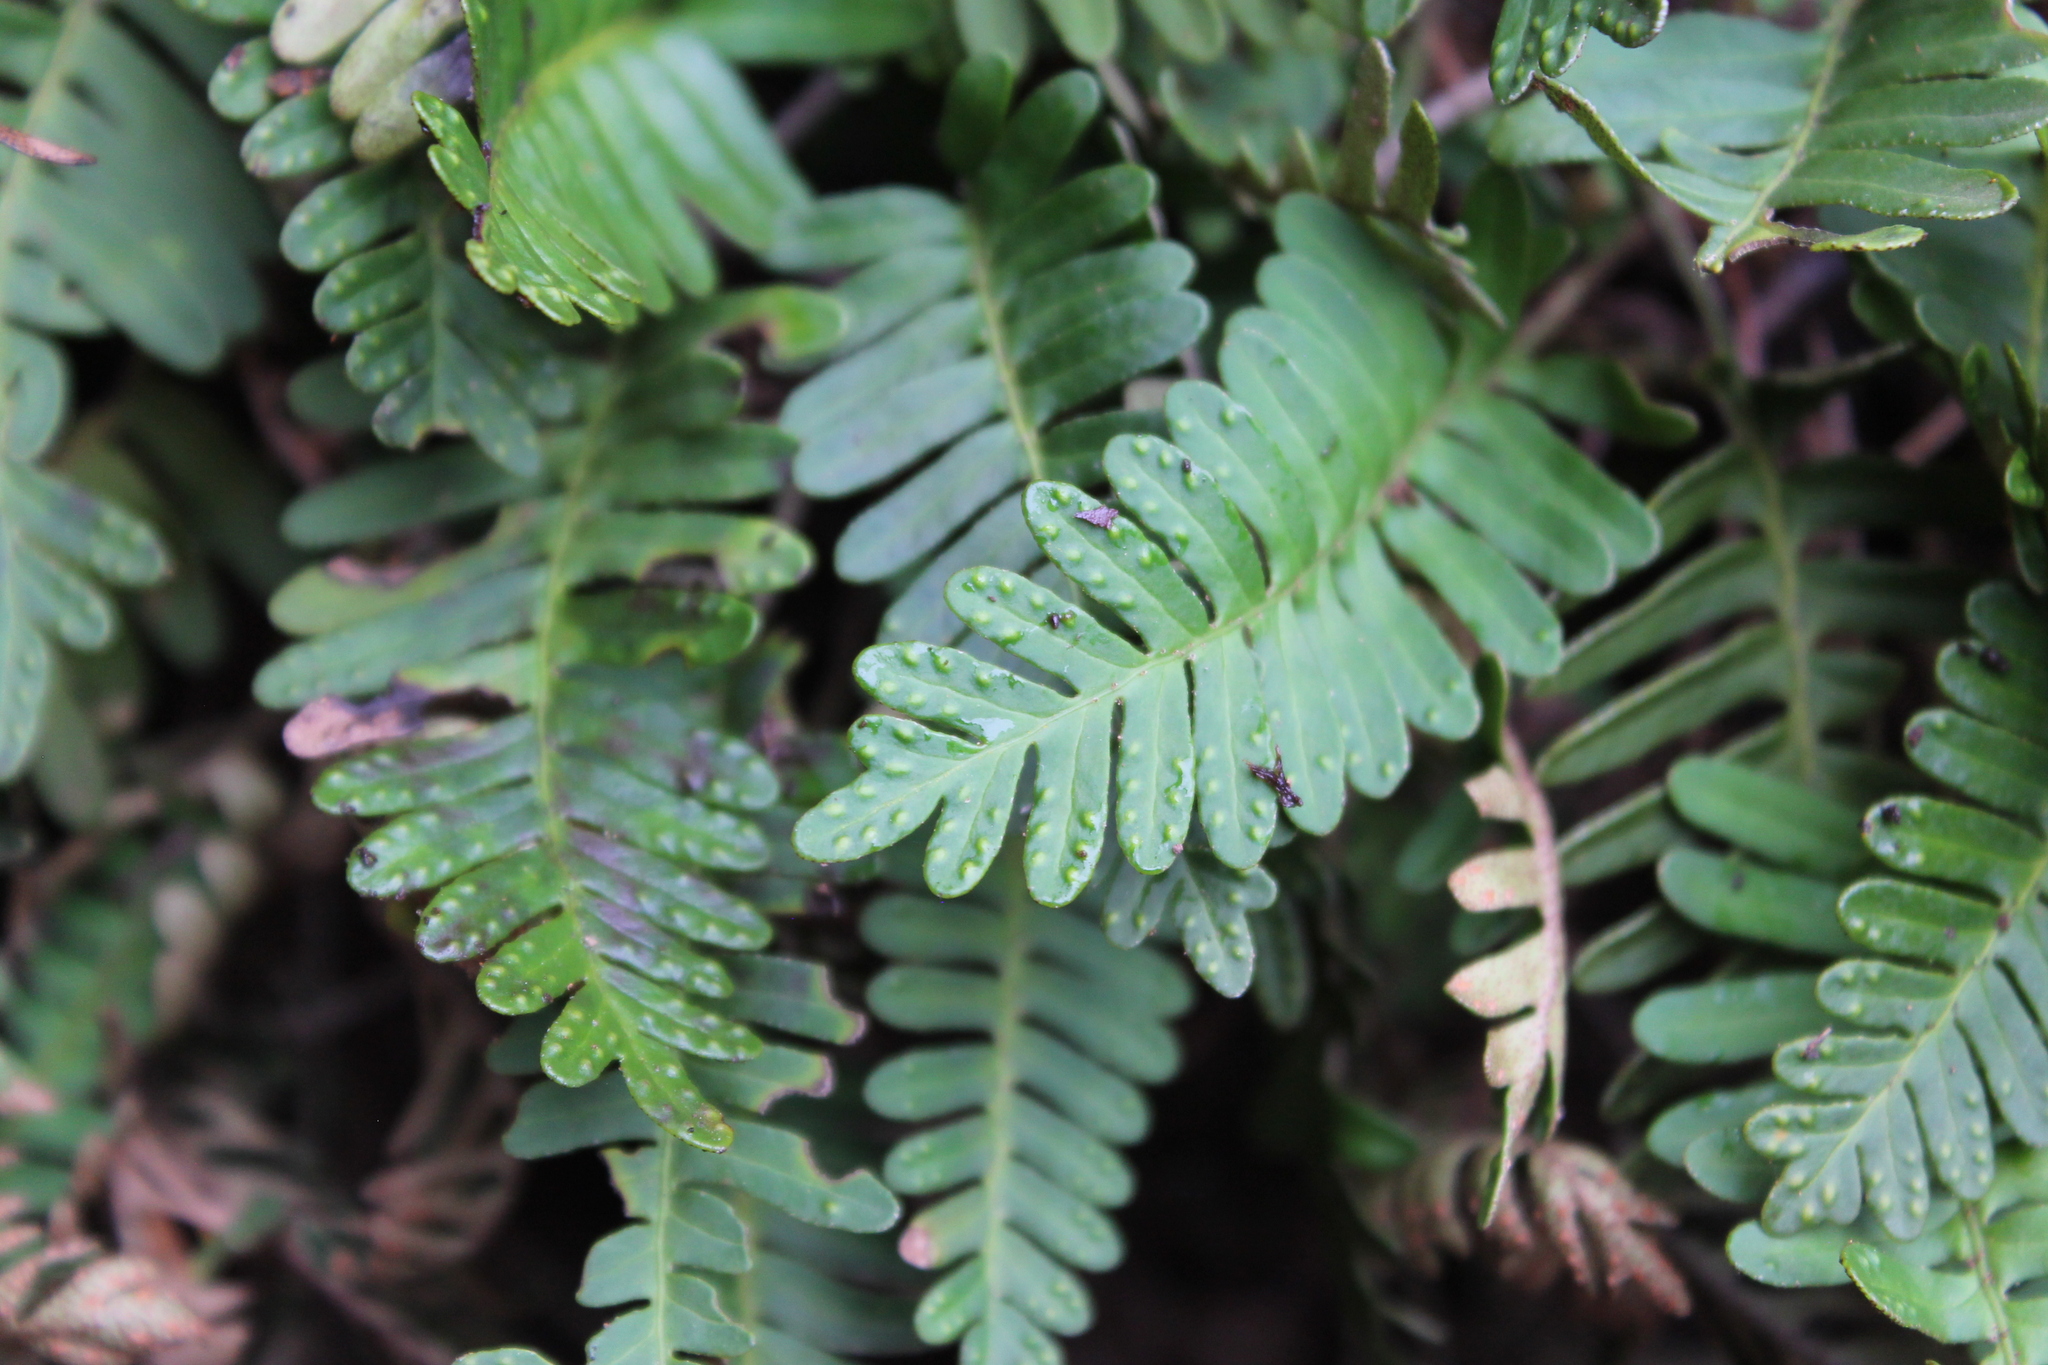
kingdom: Plantae
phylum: Tracheophyta
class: Polypodiopsida
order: Polypodiales
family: Polypodiaceae
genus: Pleopeltis
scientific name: Pleopeltis michauxiana
